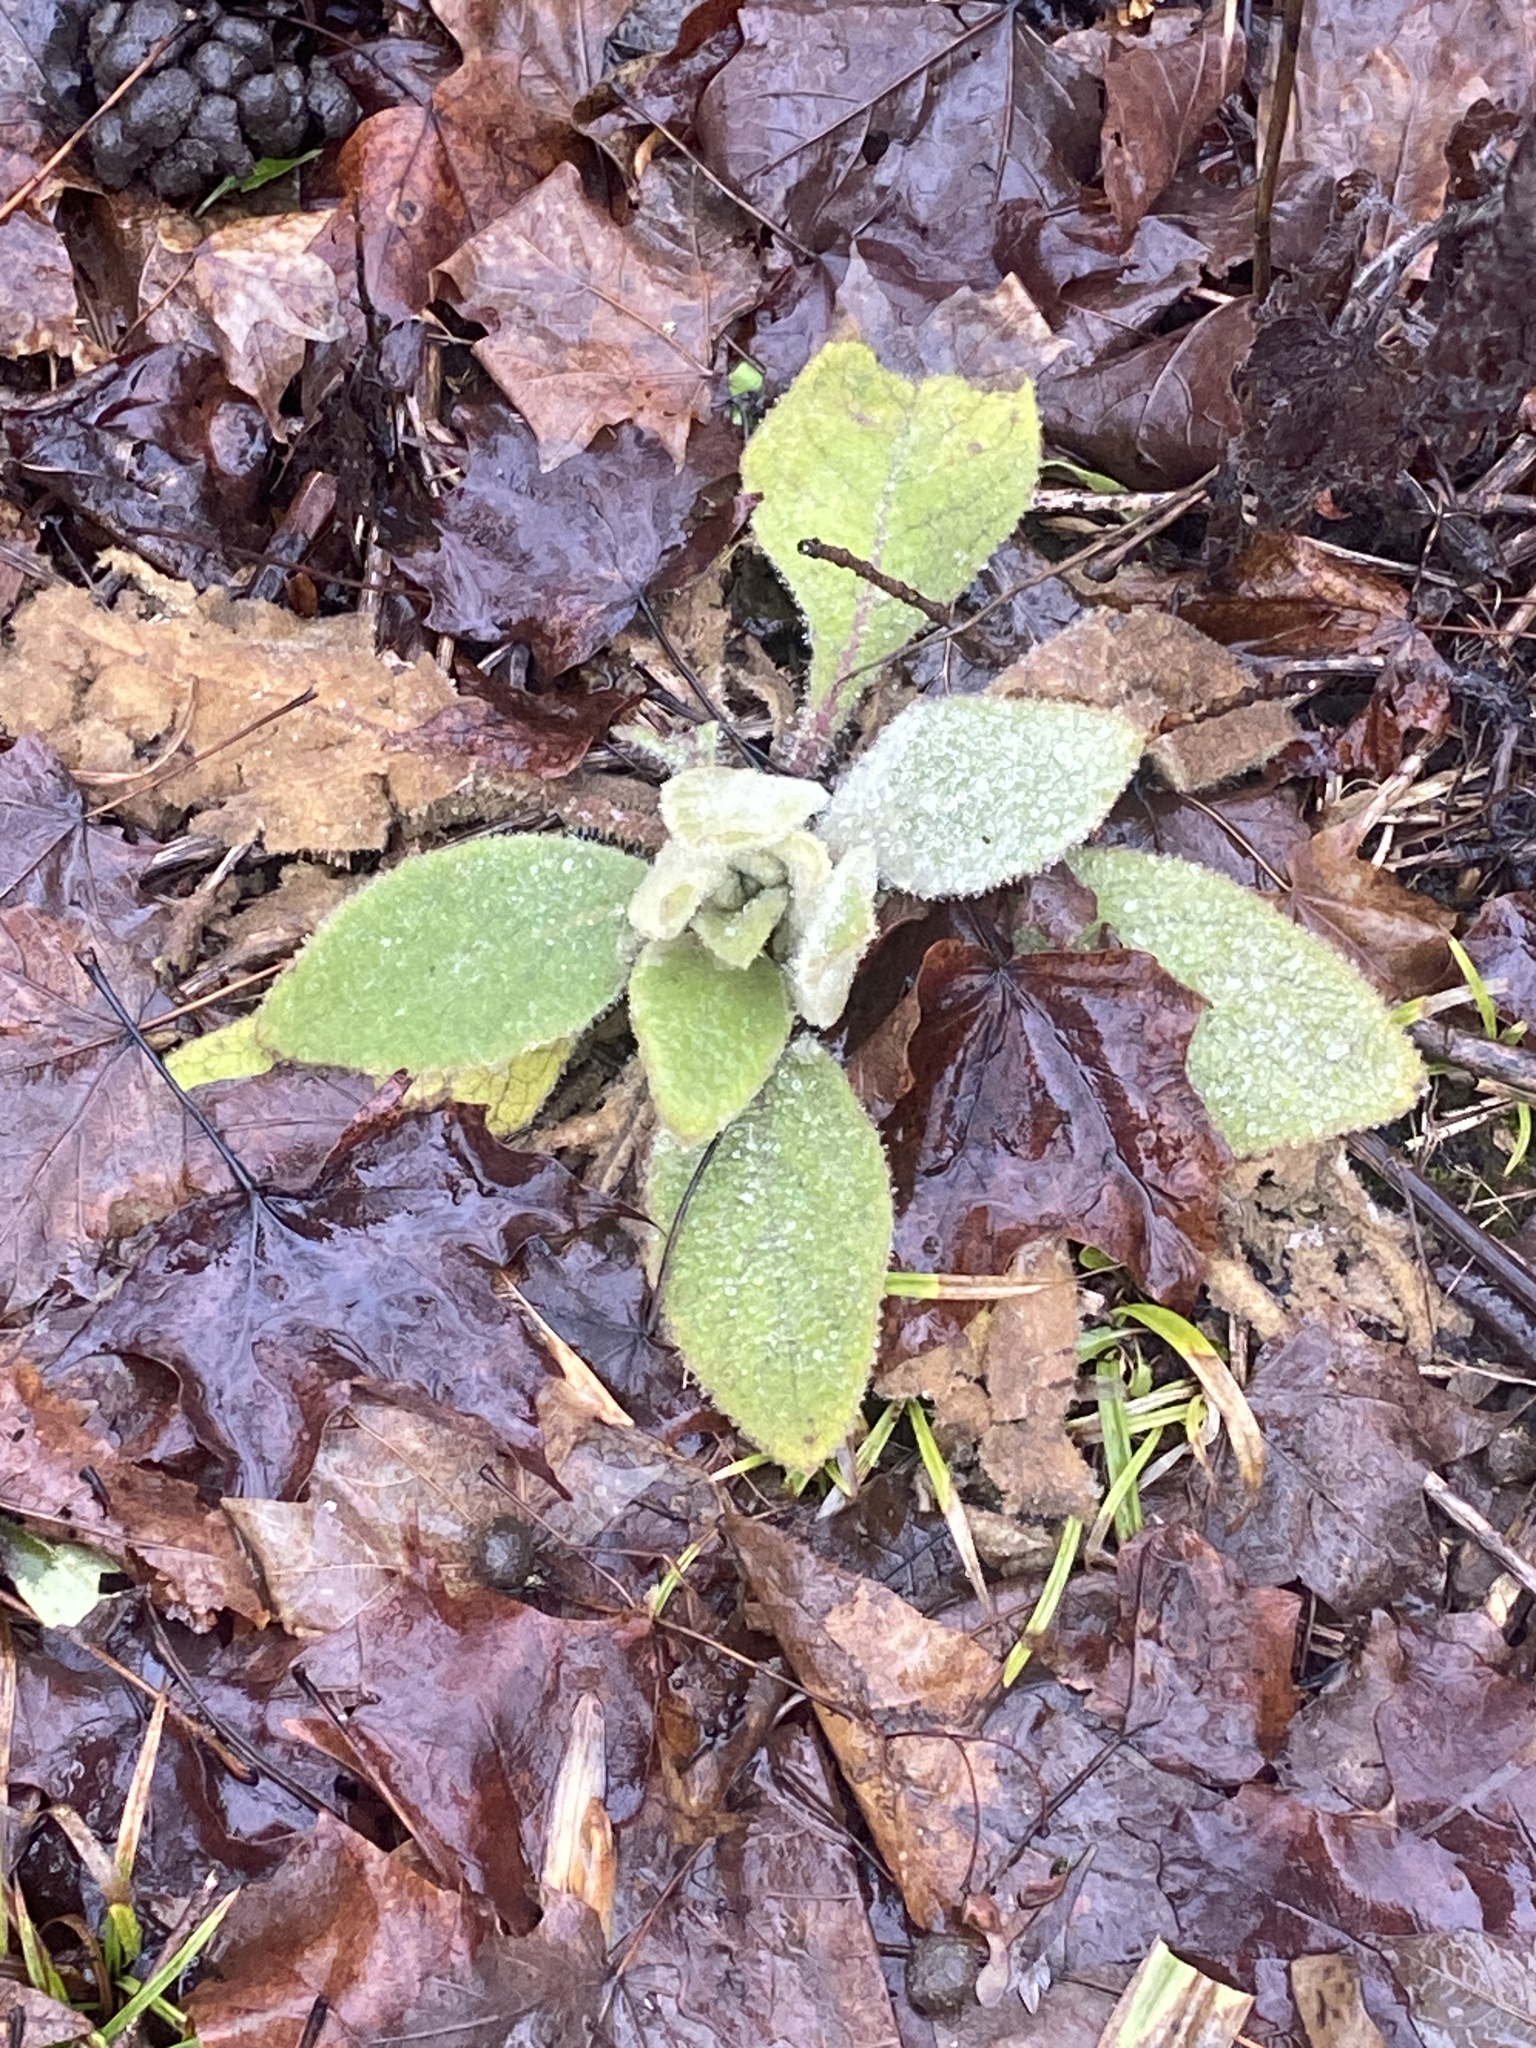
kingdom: Plantae
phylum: Tracheophyta
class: Magnoliopsida
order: Lamiales
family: Scrophulariaceae
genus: Verbascum
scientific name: Verbascum thapsus
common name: Common mullein
